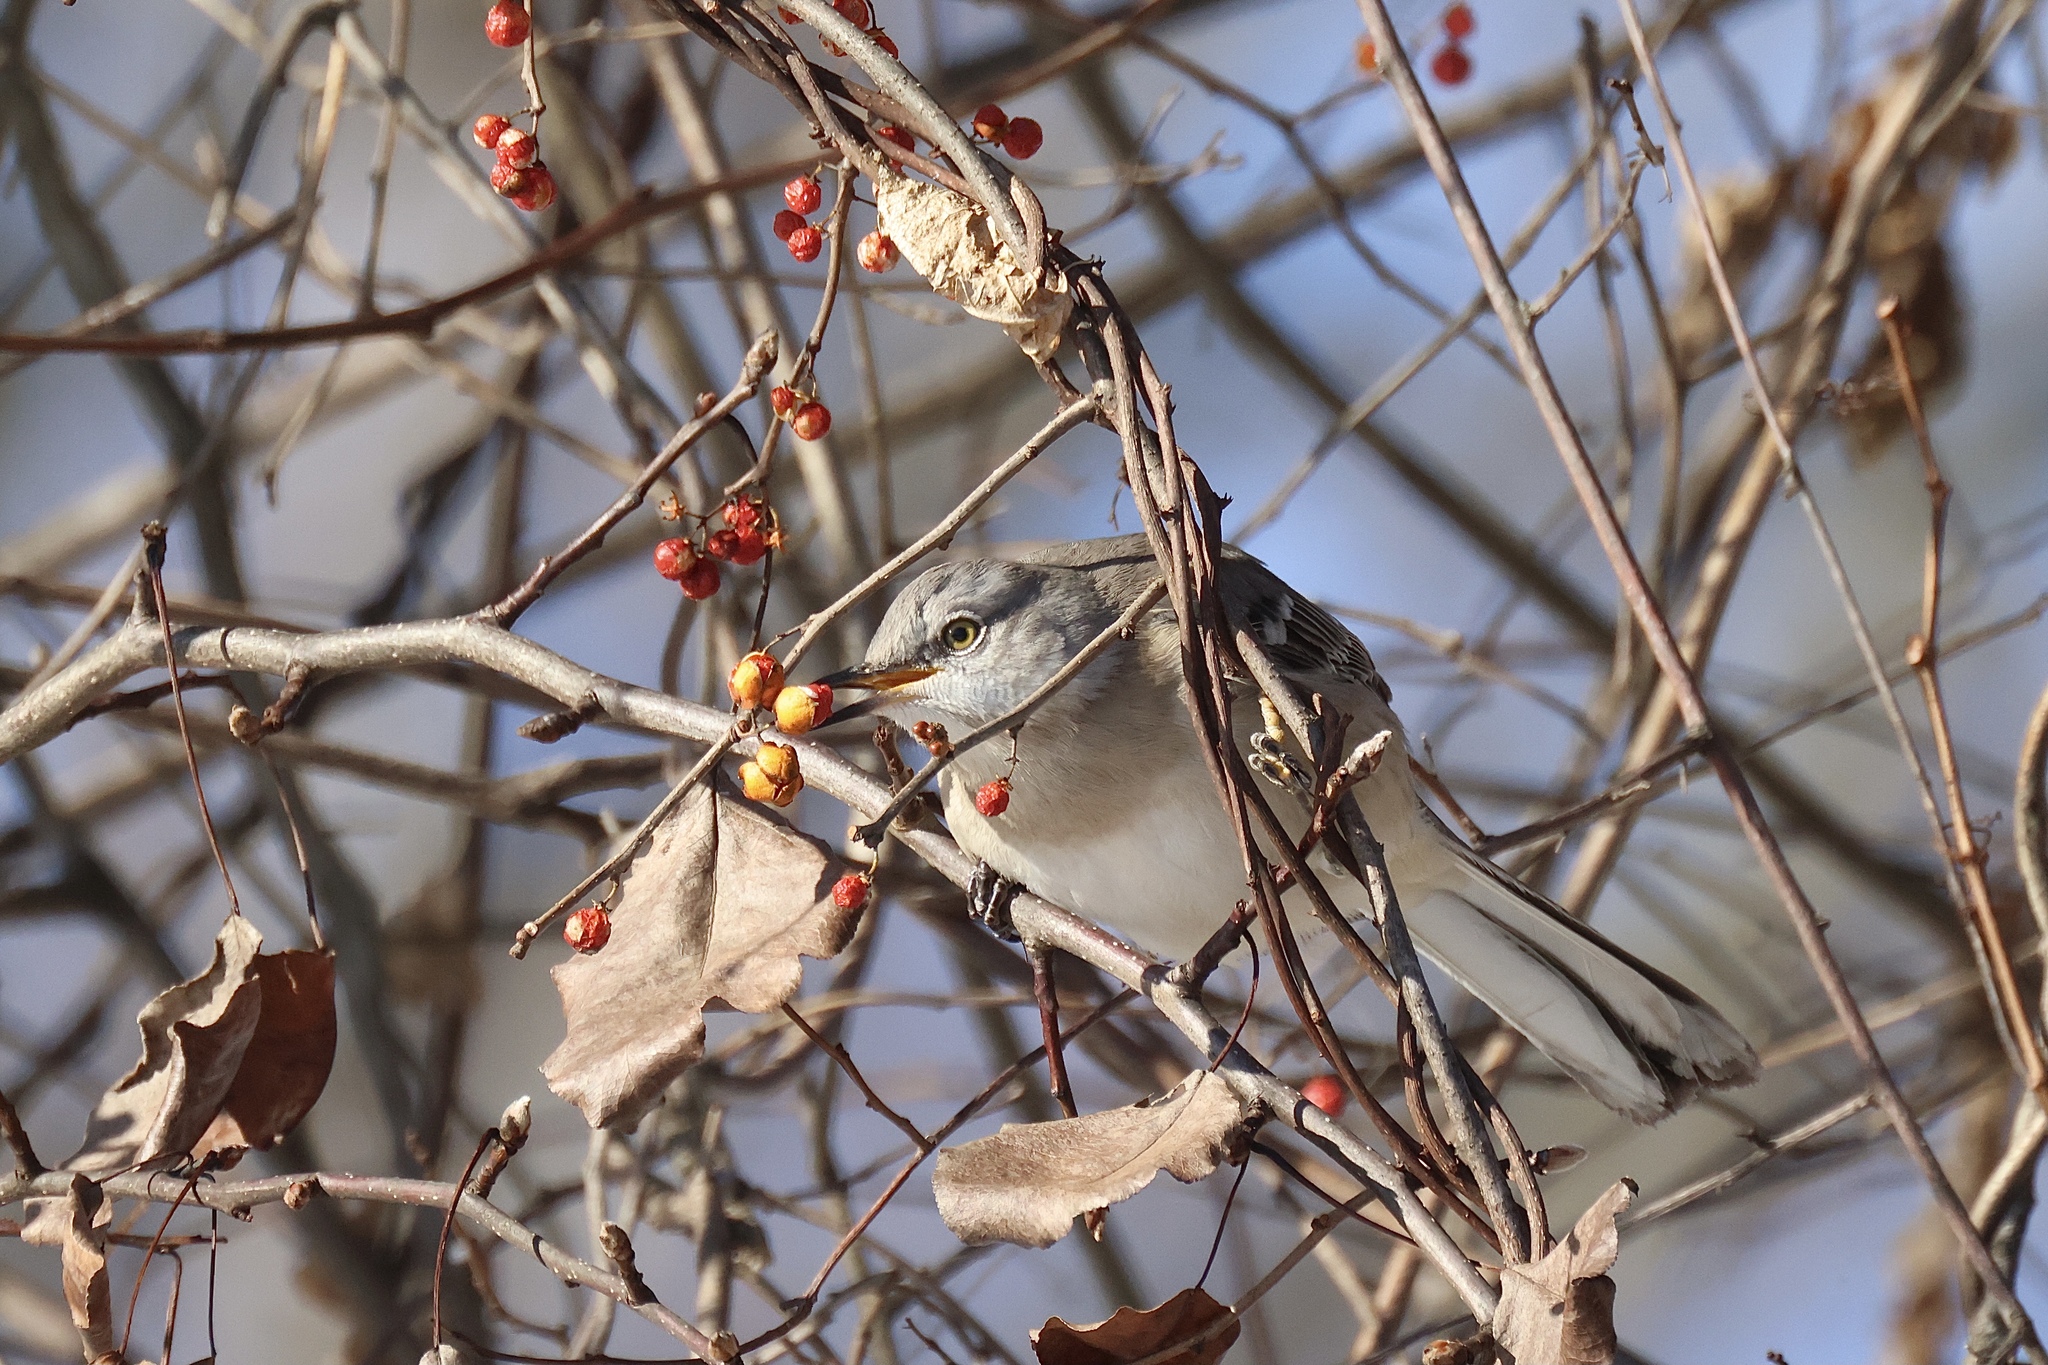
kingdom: Animalia
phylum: Chordata
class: Aves
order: Passeriformes
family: Mimidae
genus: Mimus
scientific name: Mimus polyglottos
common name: Northern mockingbird
